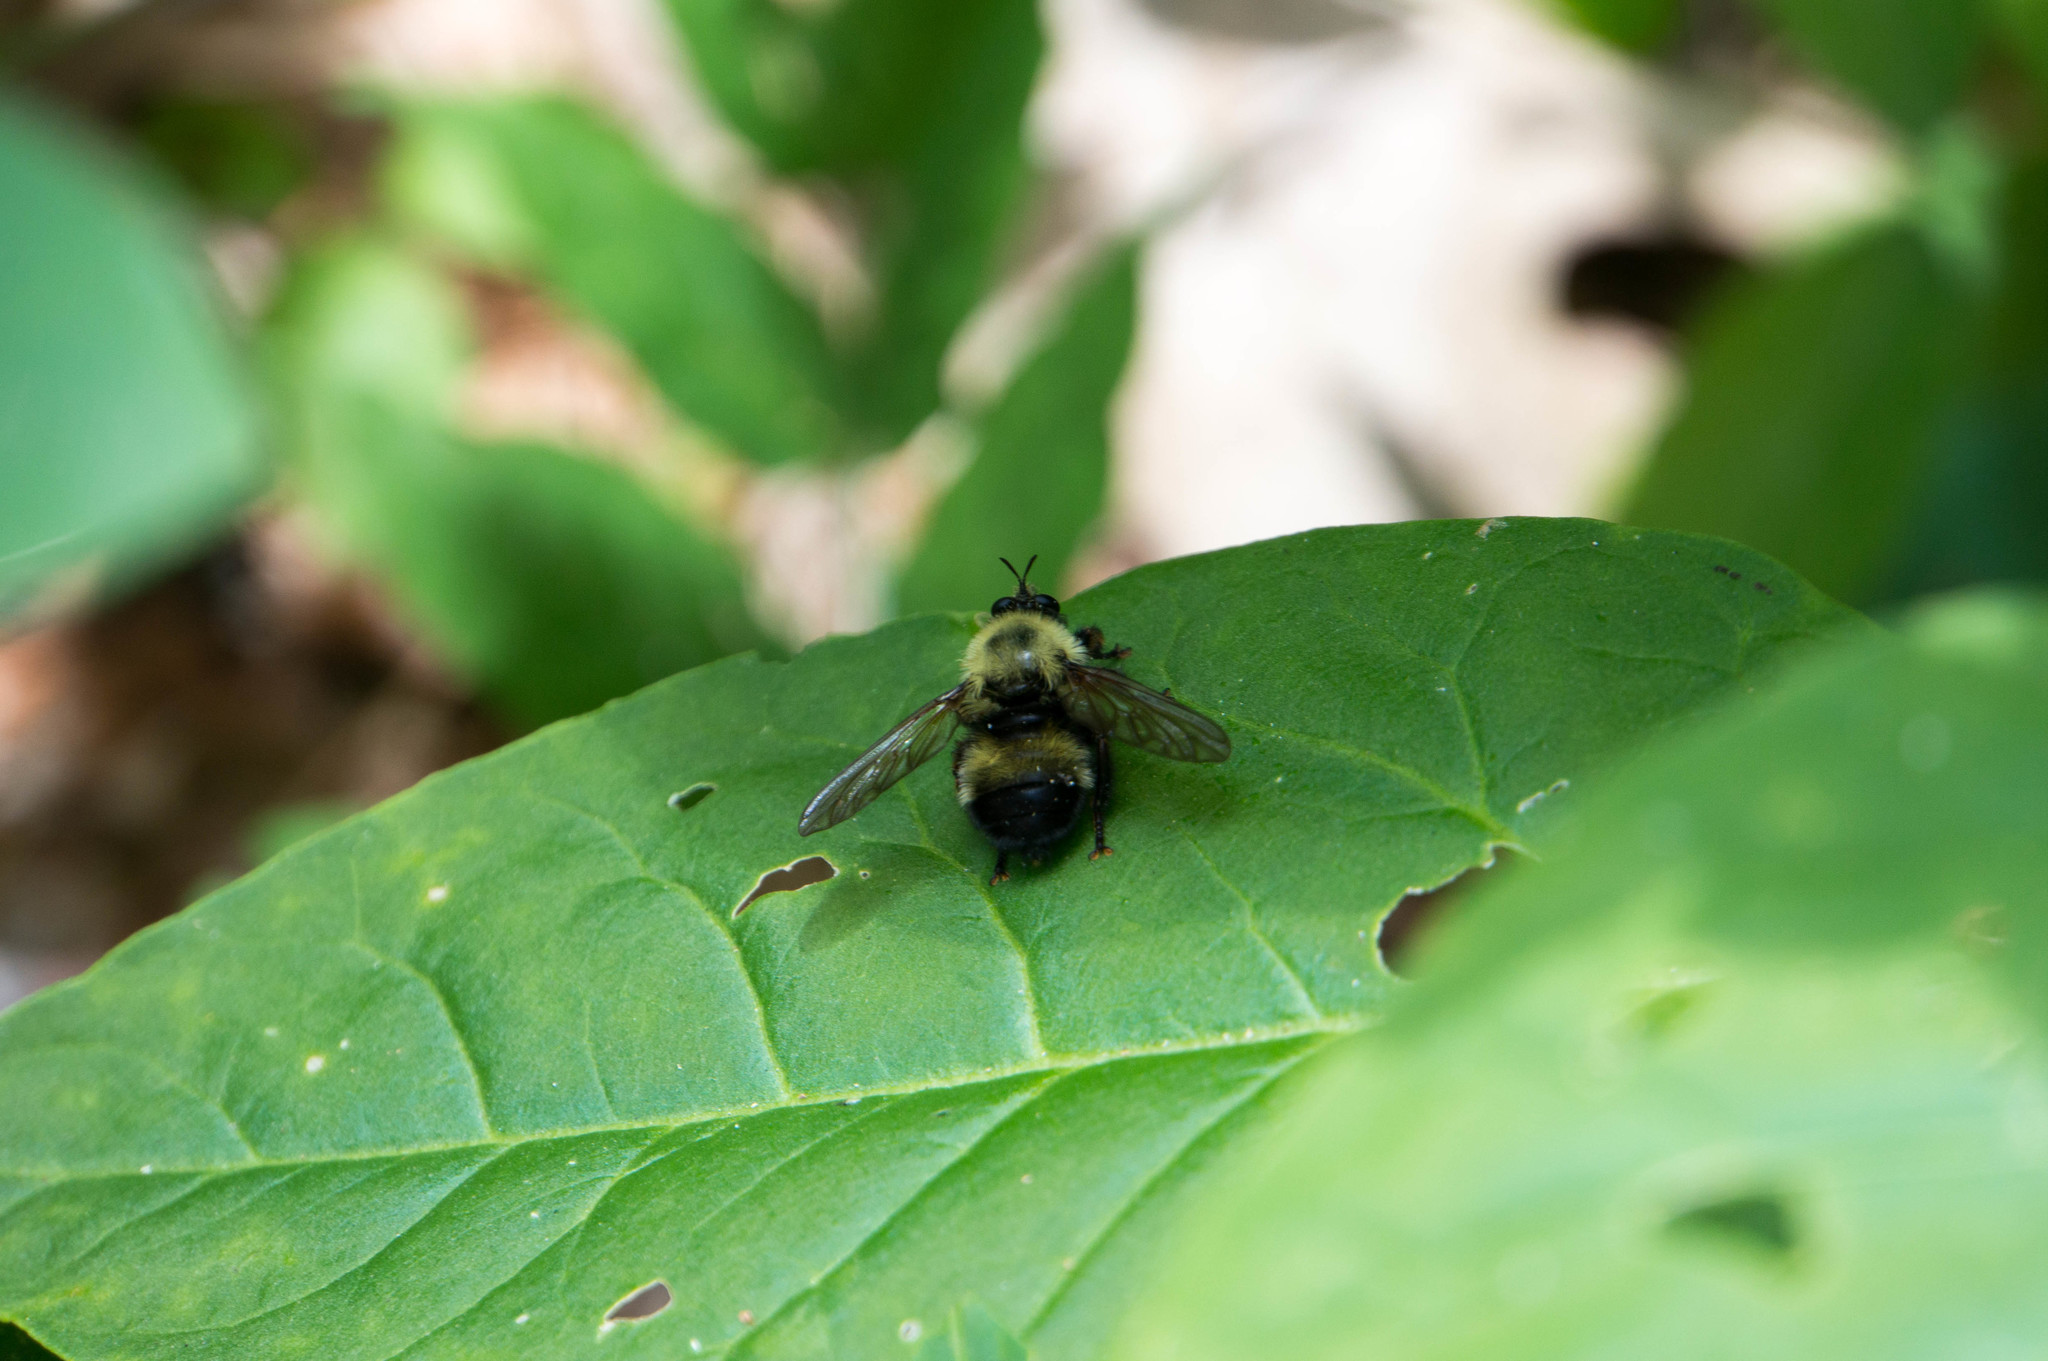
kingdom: Animalia
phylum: Arthropoda
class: Insecta
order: Diptera
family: Asilidae
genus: Laphria
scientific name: Laphria thoracica
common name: Bumble bee mimic robber fly
